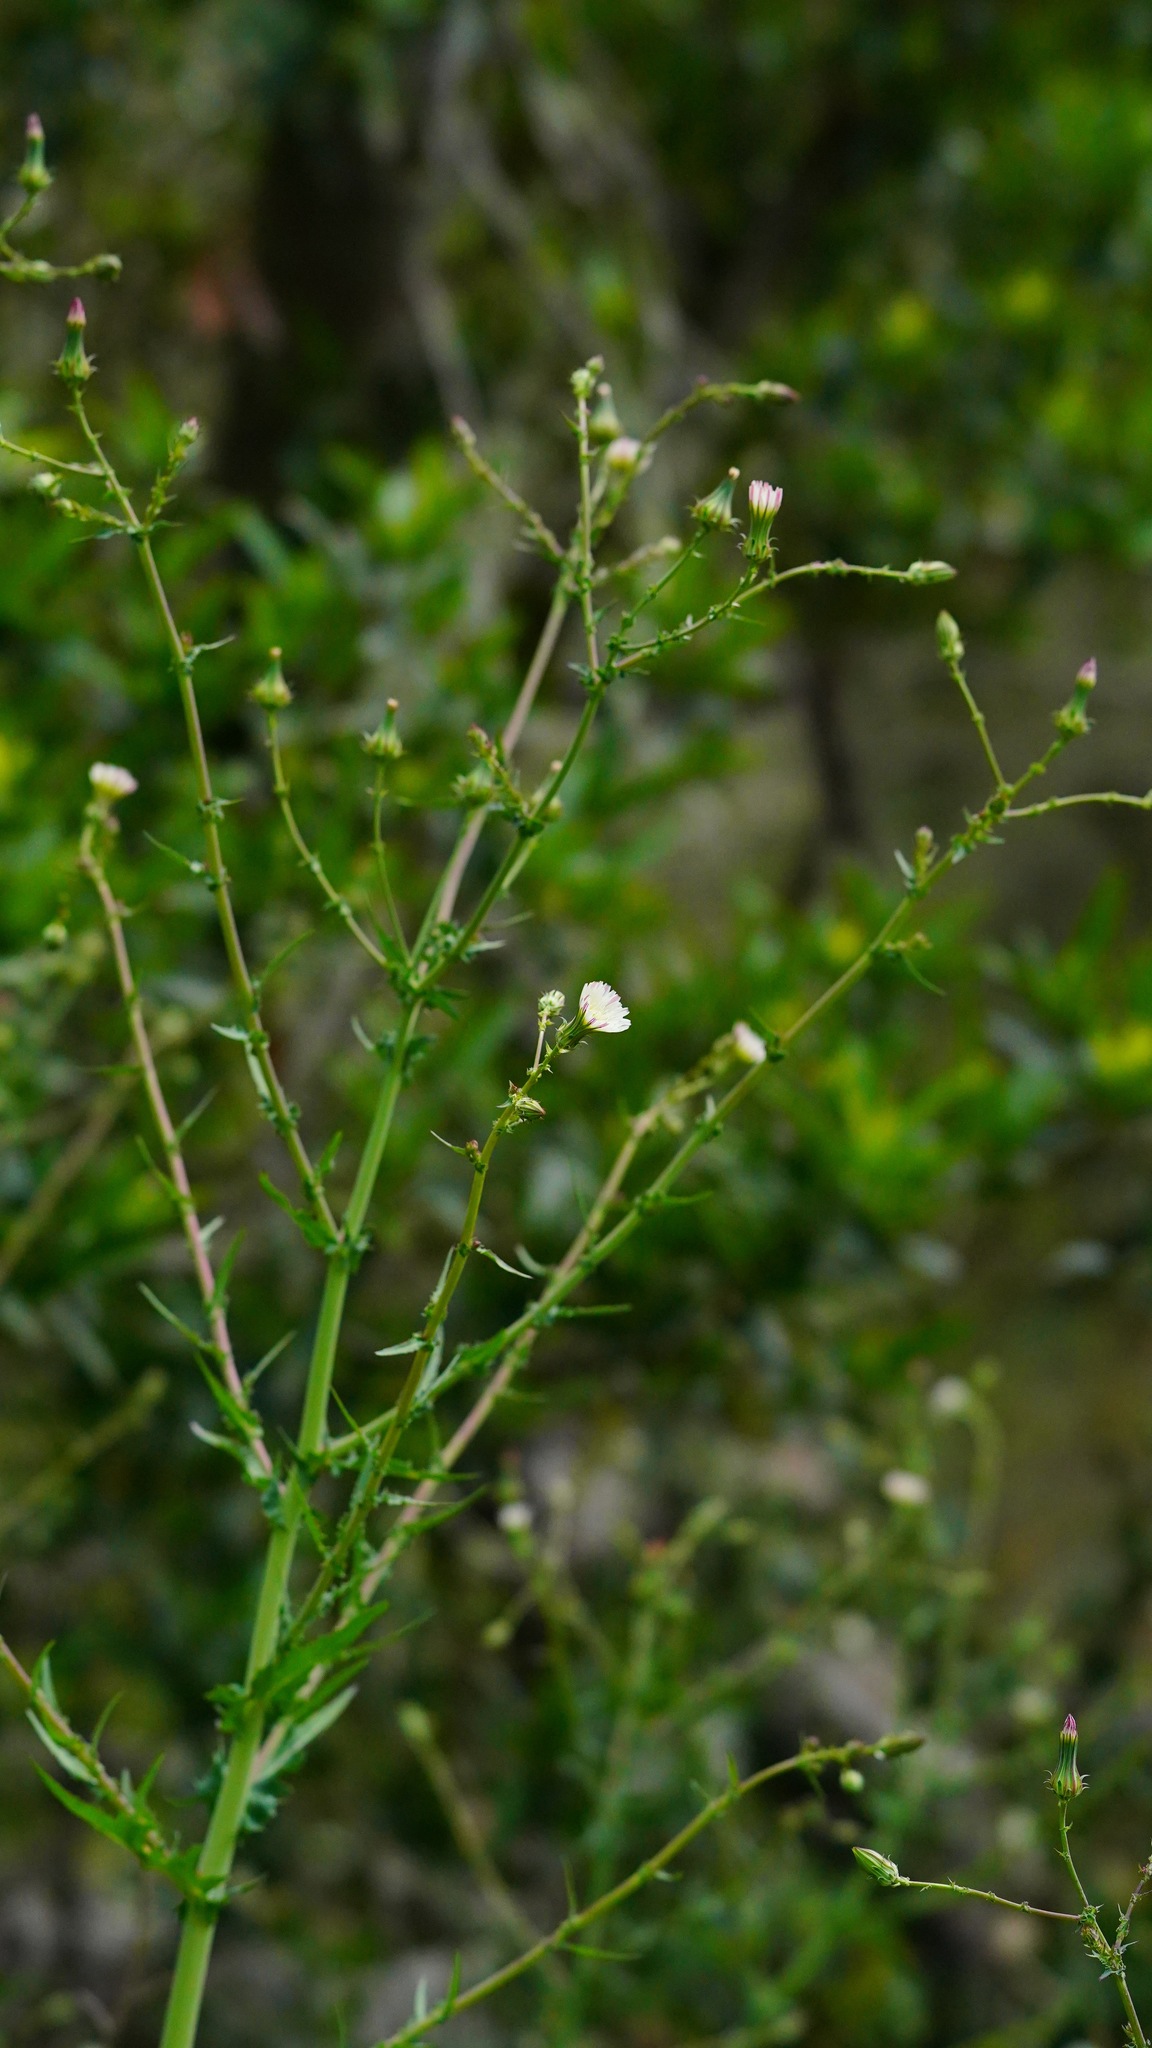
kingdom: Plantae
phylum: Tracheophyta
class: Magnoliopsida
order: Asterales
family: Asteraceae
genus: Rafinesquia
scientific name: Rafinesquia californica
